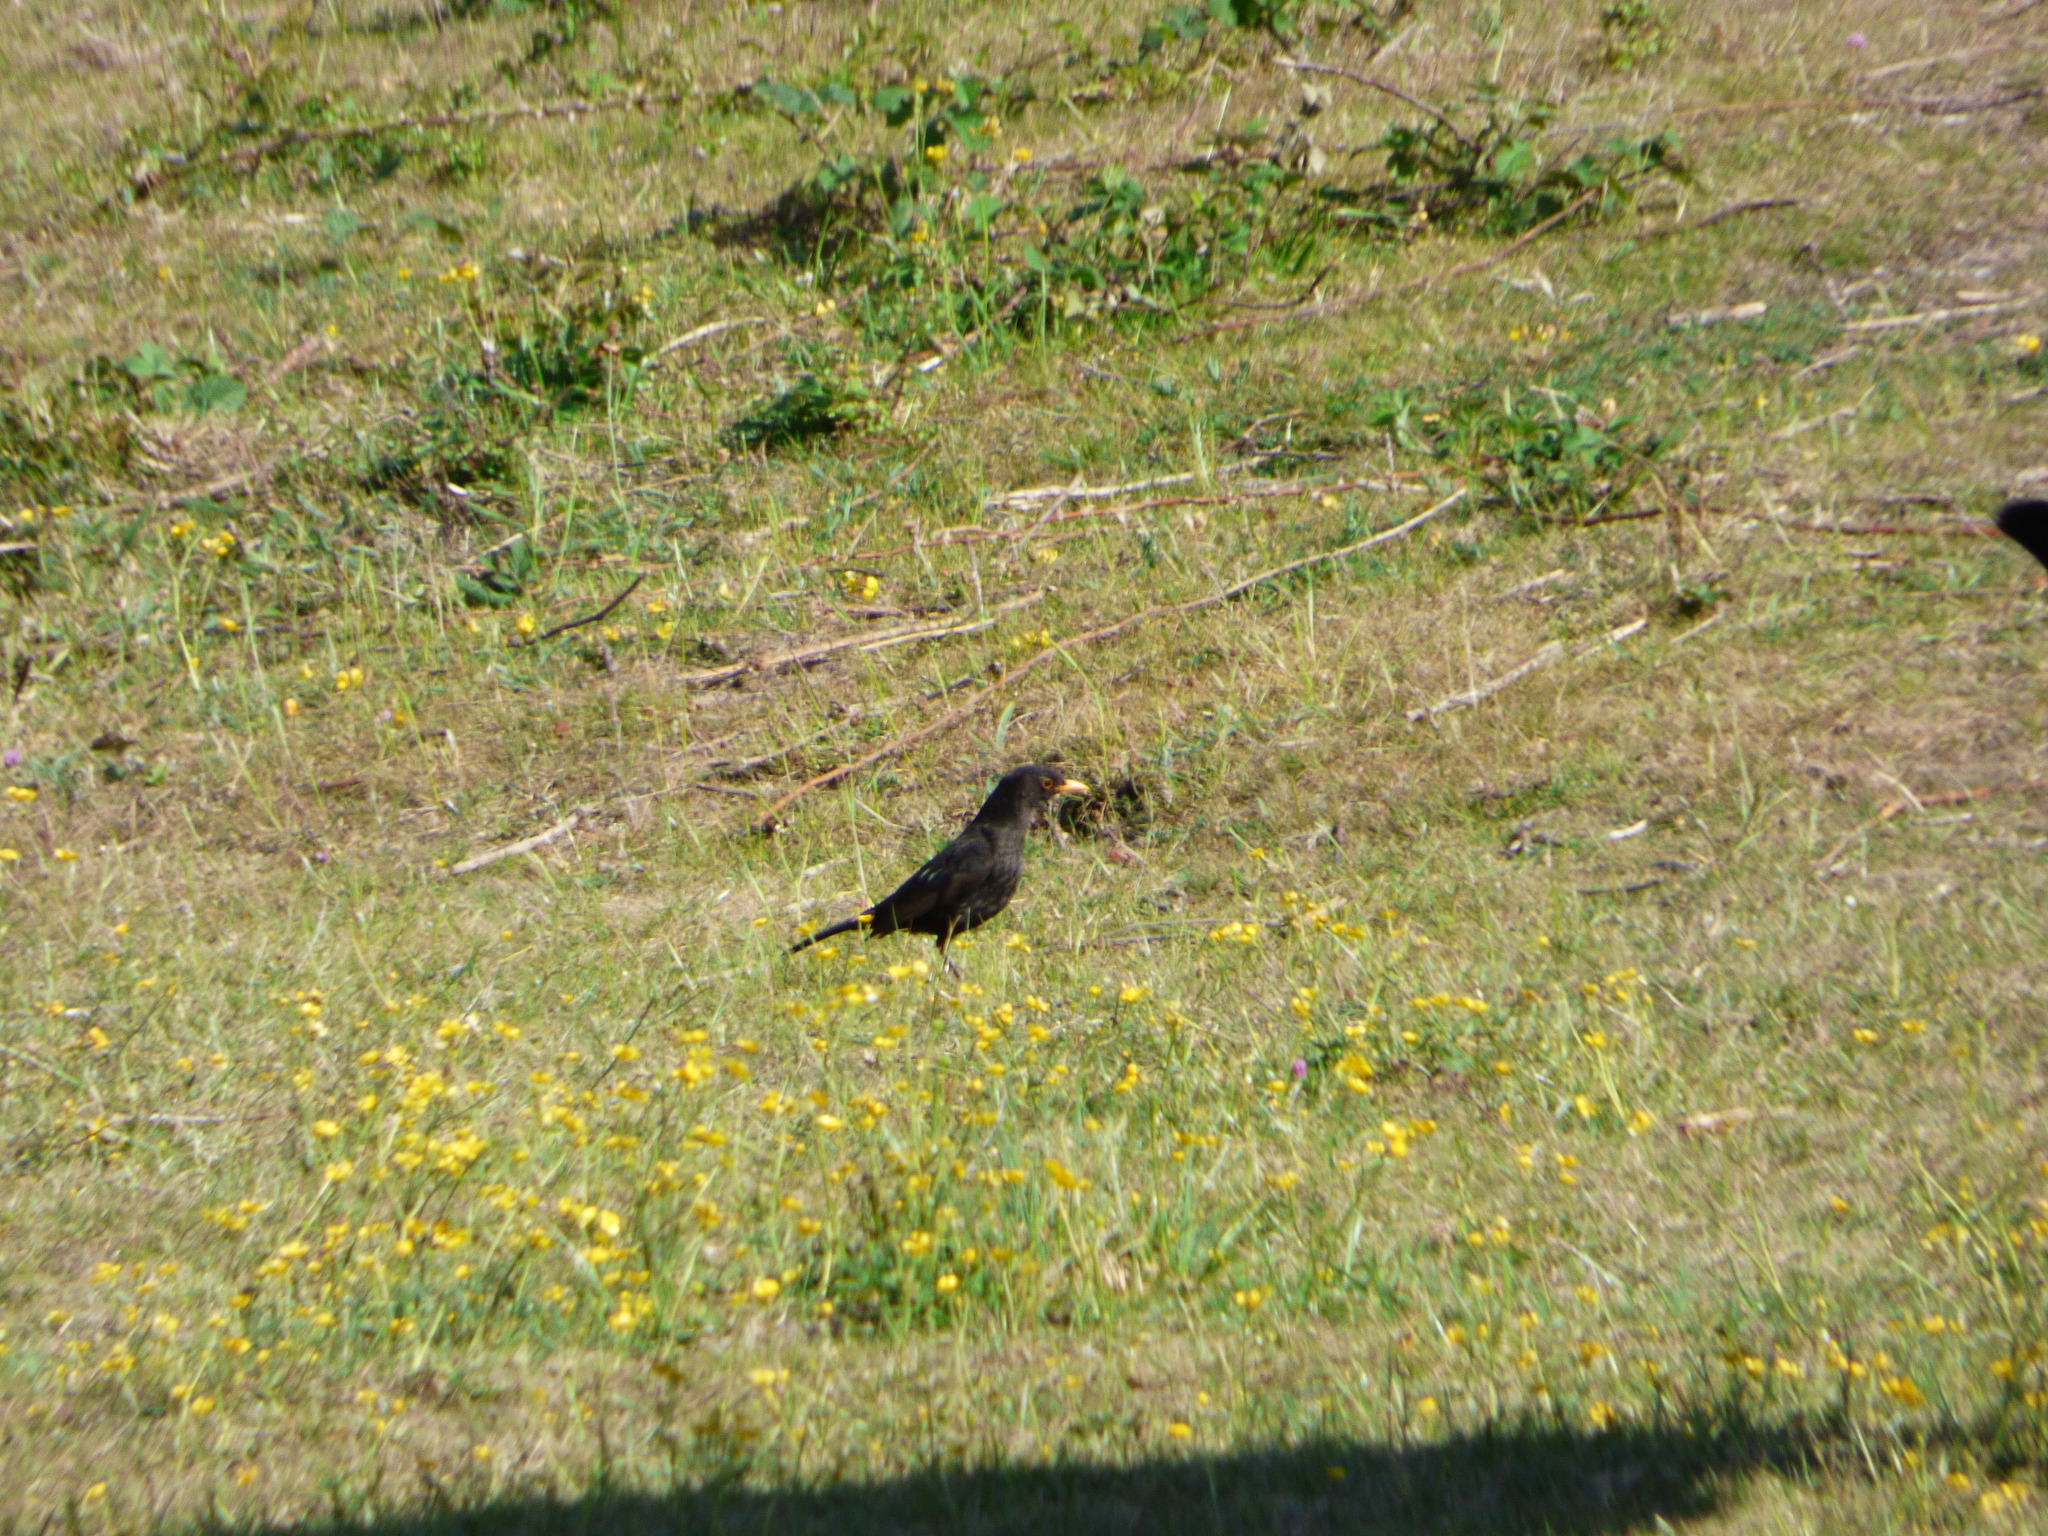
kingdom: Animalia
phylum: Chordata
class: Aves
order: Passeriformes
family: Turdidae
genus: Turdus
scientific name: Turdus merula
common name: Common blackbird
